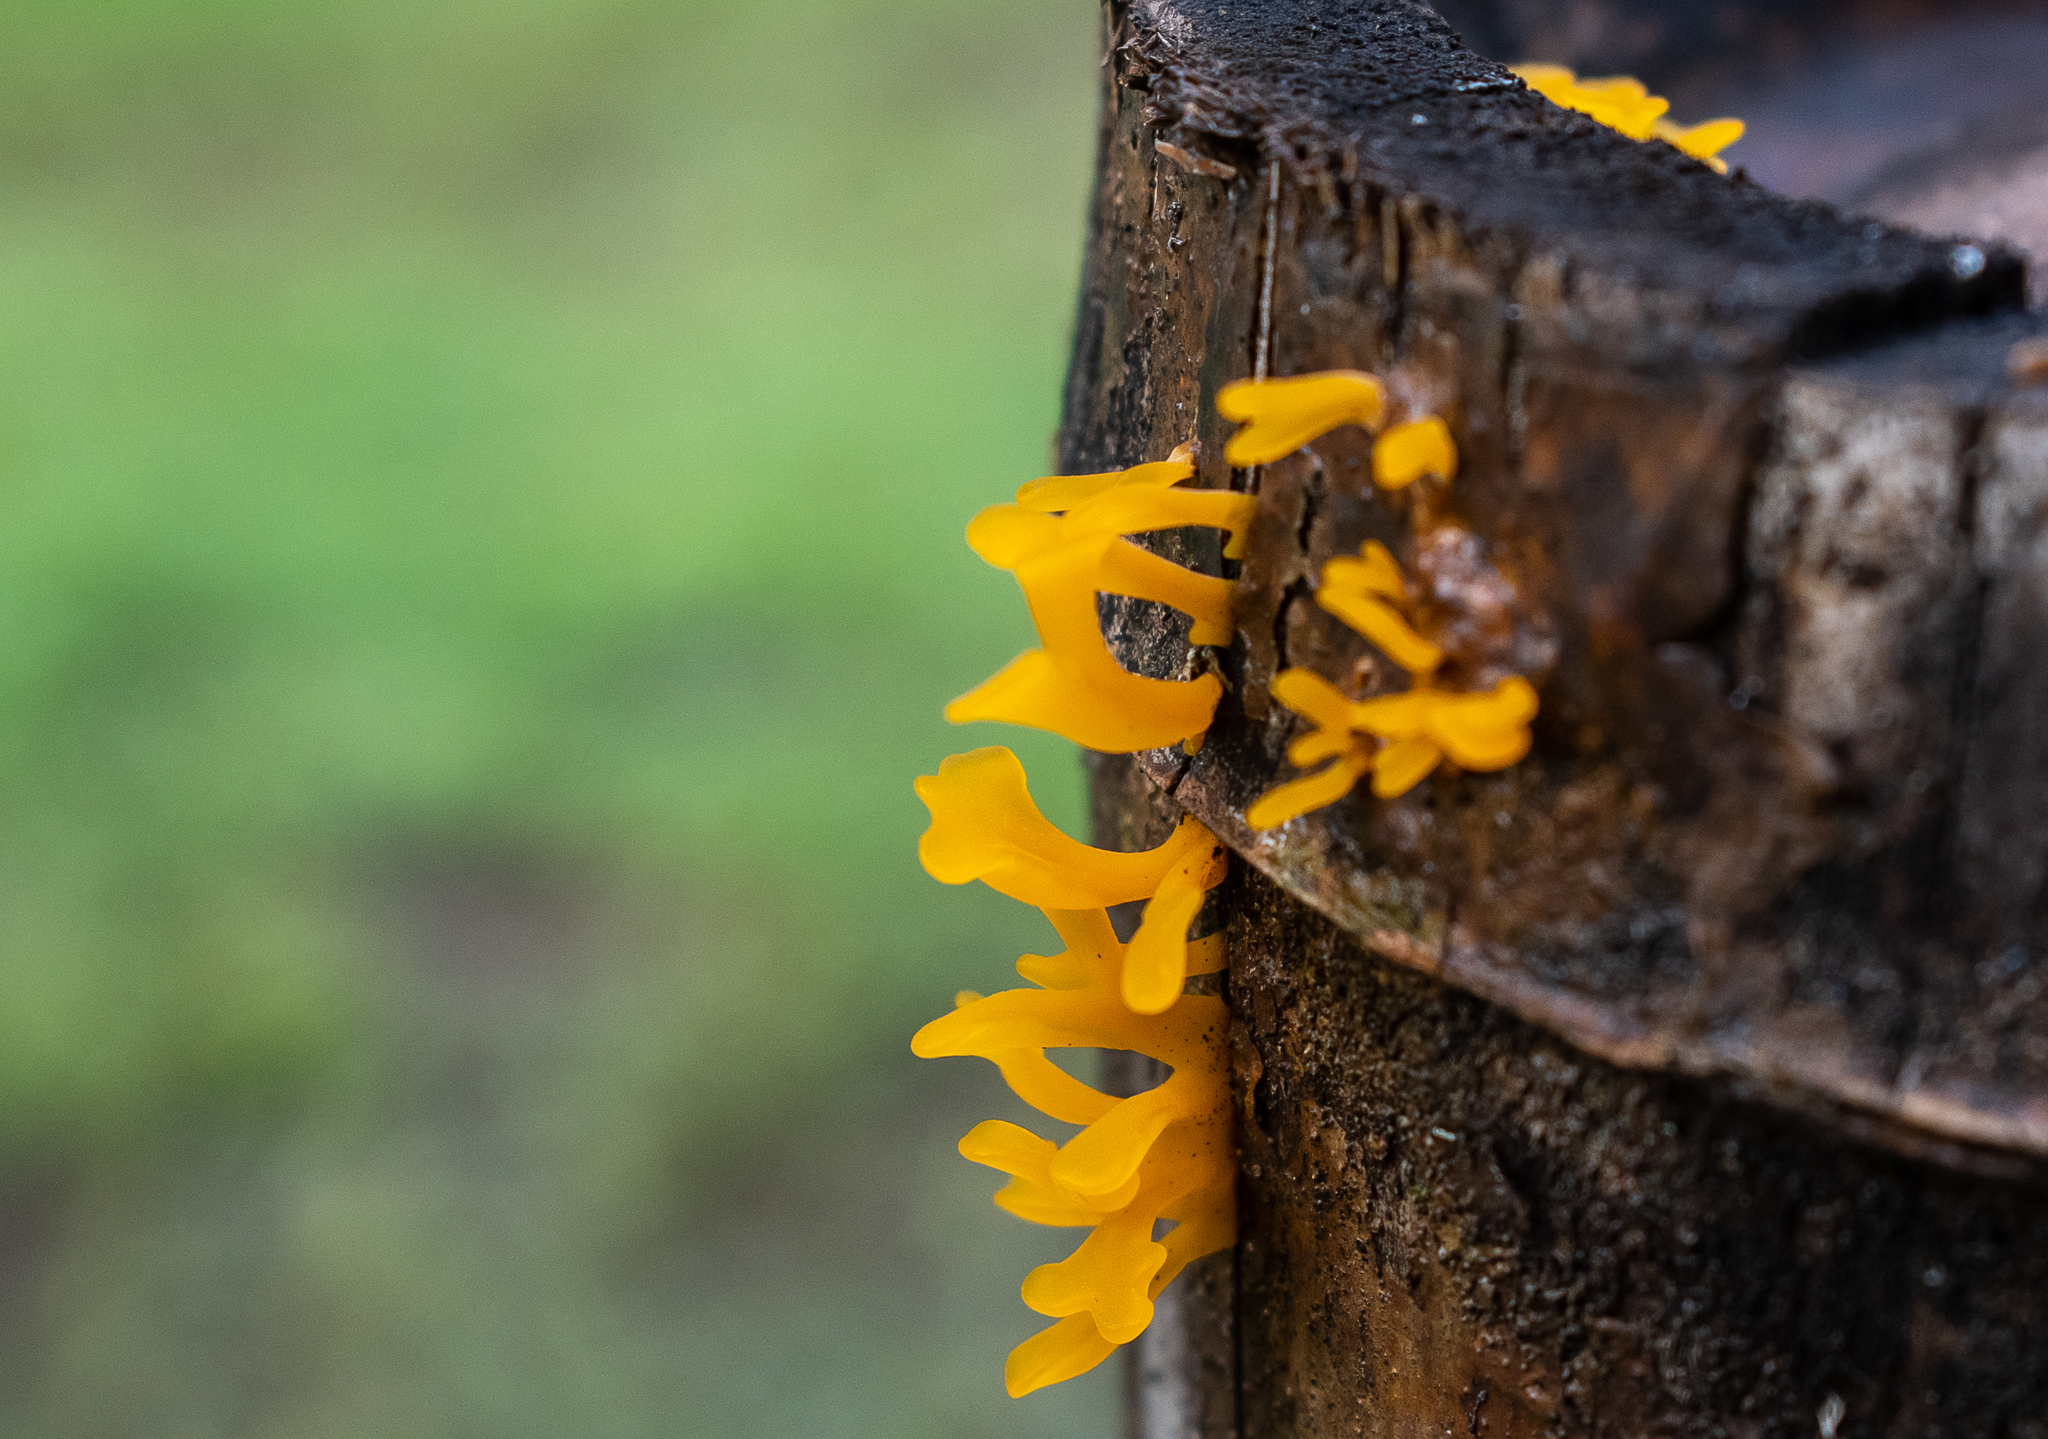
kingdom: Fungi
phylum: Basidiomycota
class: Dacrymycetes
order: Dacrymycetales
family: Dacrymycetaceae
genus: Dacrymyces
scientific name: Dacrymyces spathularius
